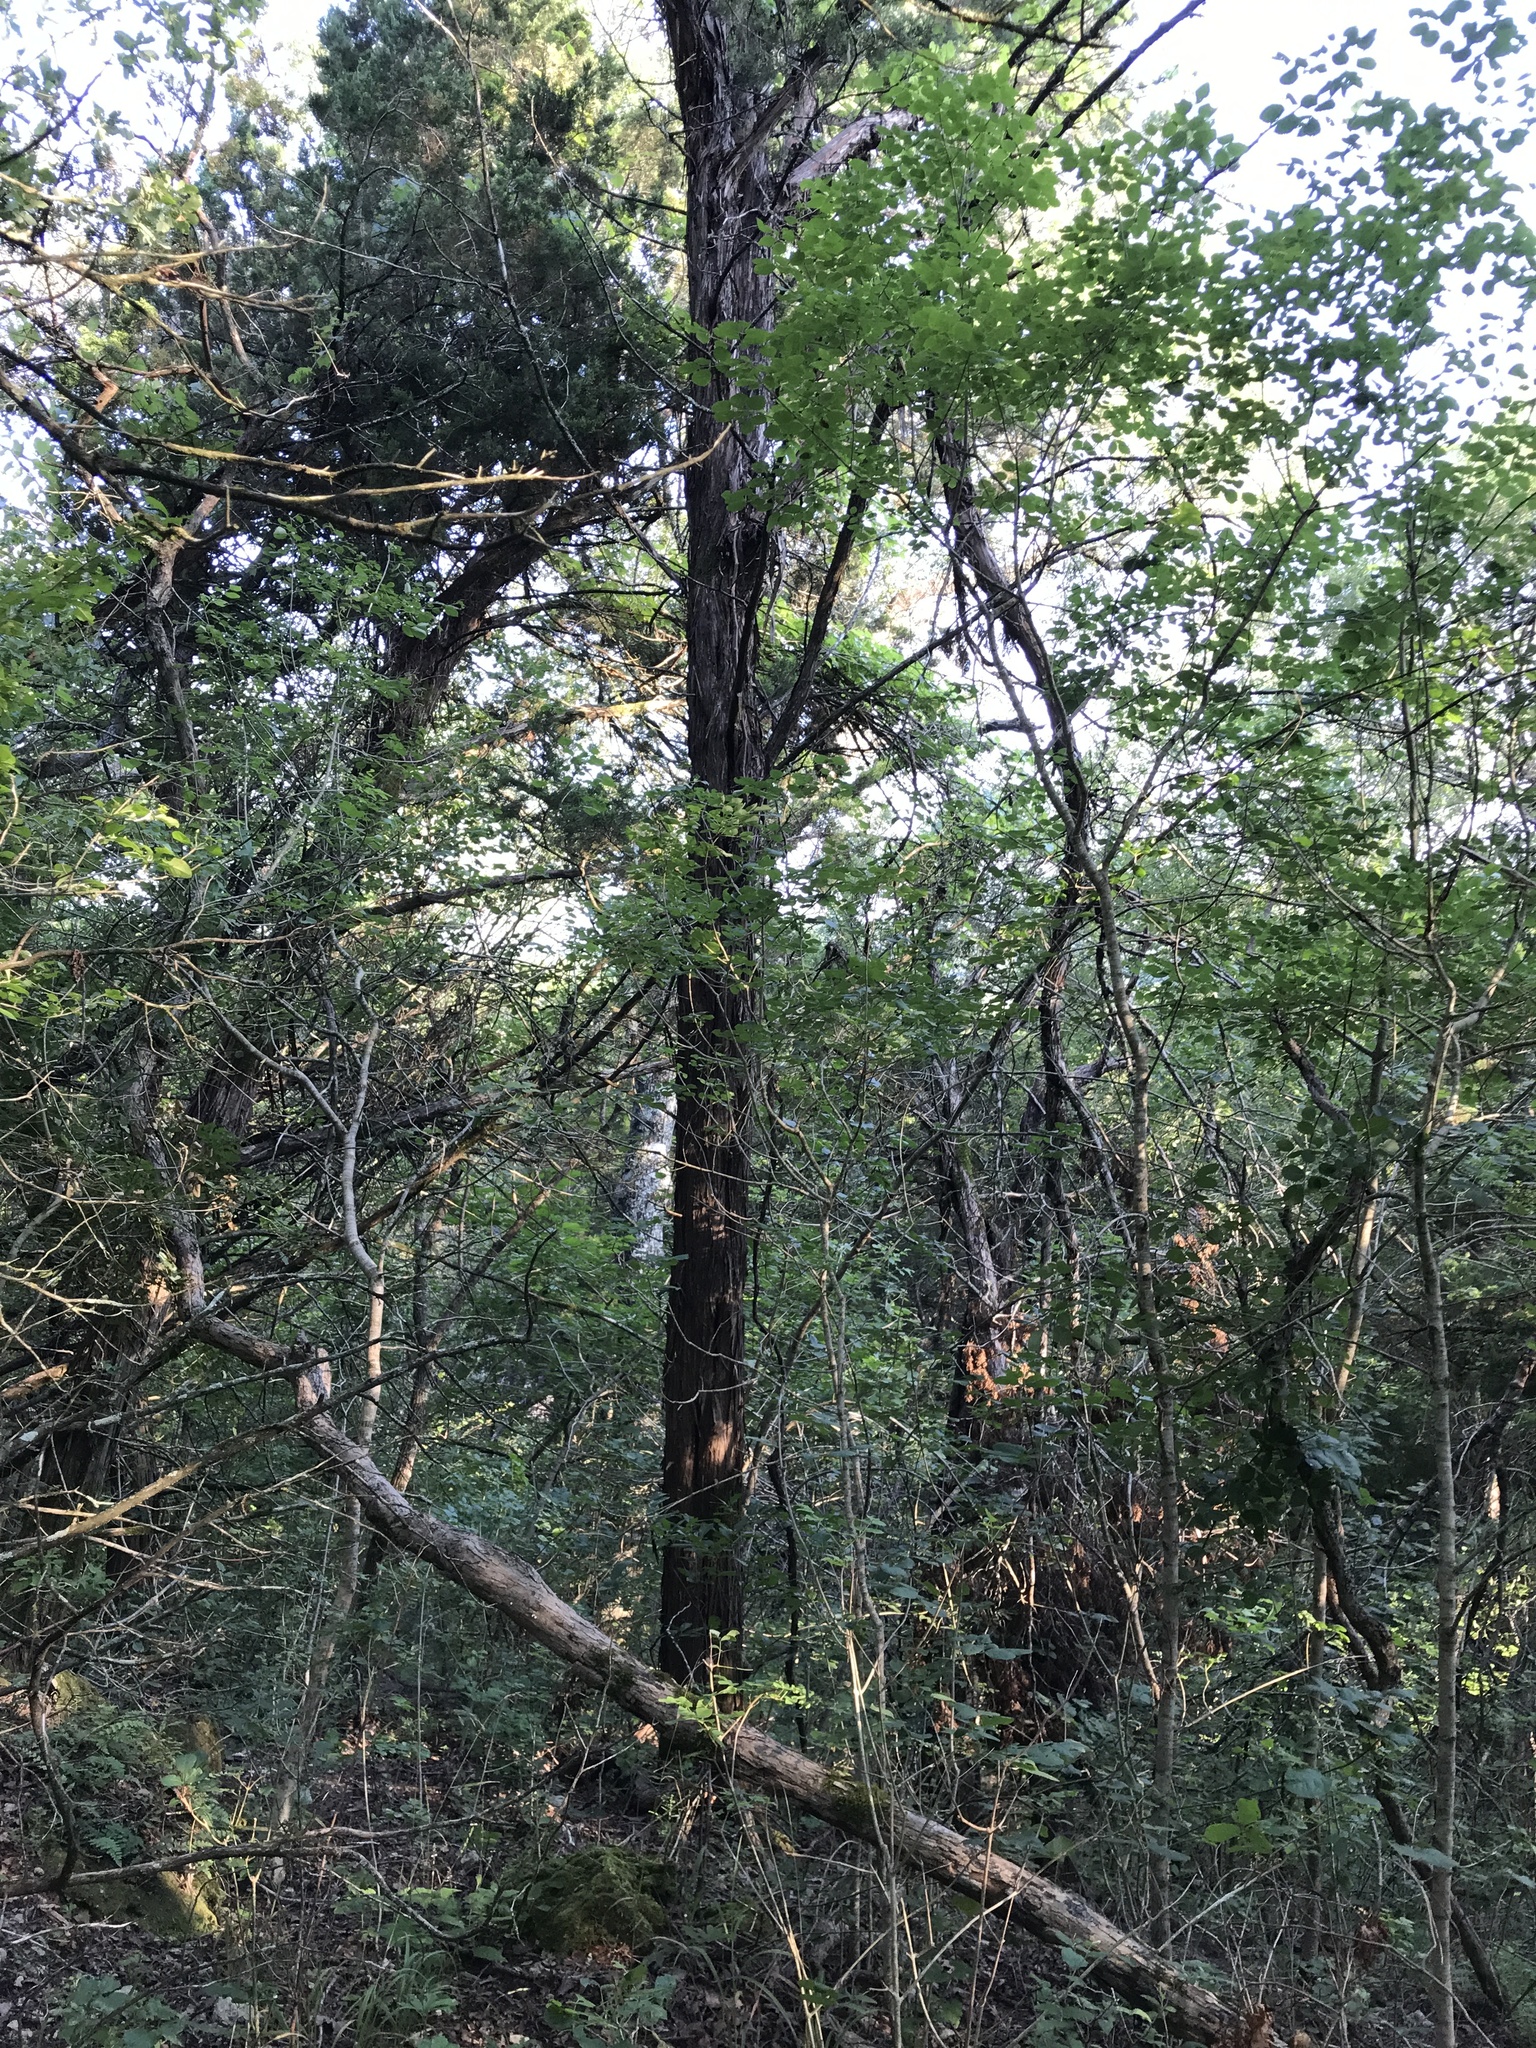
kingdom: Plantae
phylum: Tracheophyta
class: Pinopsida
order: Pinales
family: Cupressaceae
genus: Juniperus
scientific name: Juniperus ashei
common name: Mexican juniper
